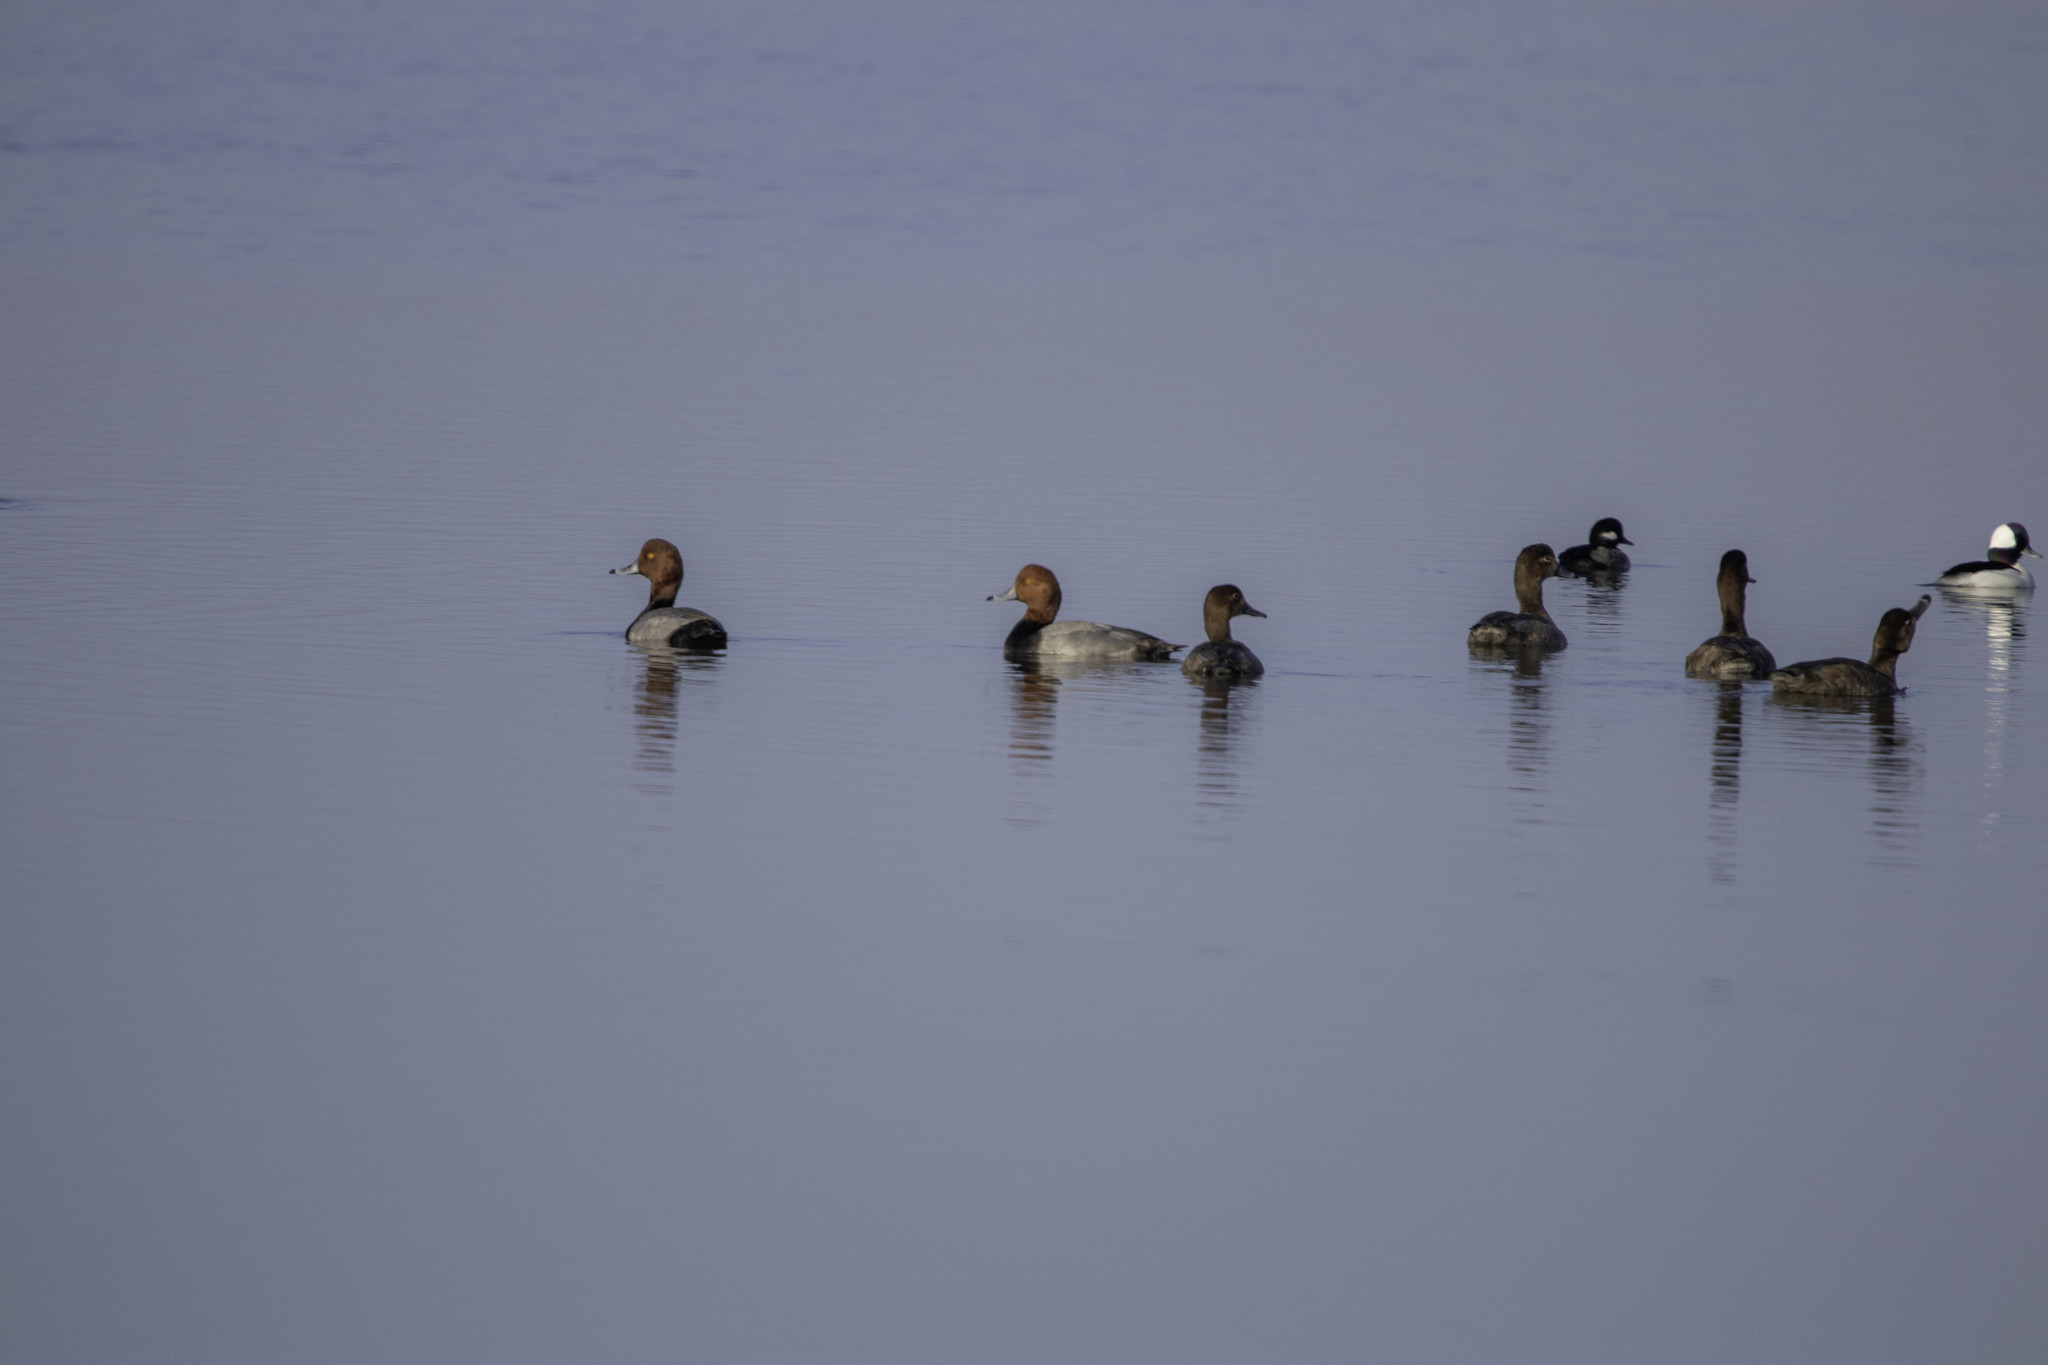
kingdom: Animalia
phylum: Chordata
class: Aves
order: Anseriformes
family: Anatidae
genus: Aythya
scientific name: Aythya americana
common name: Redhead
